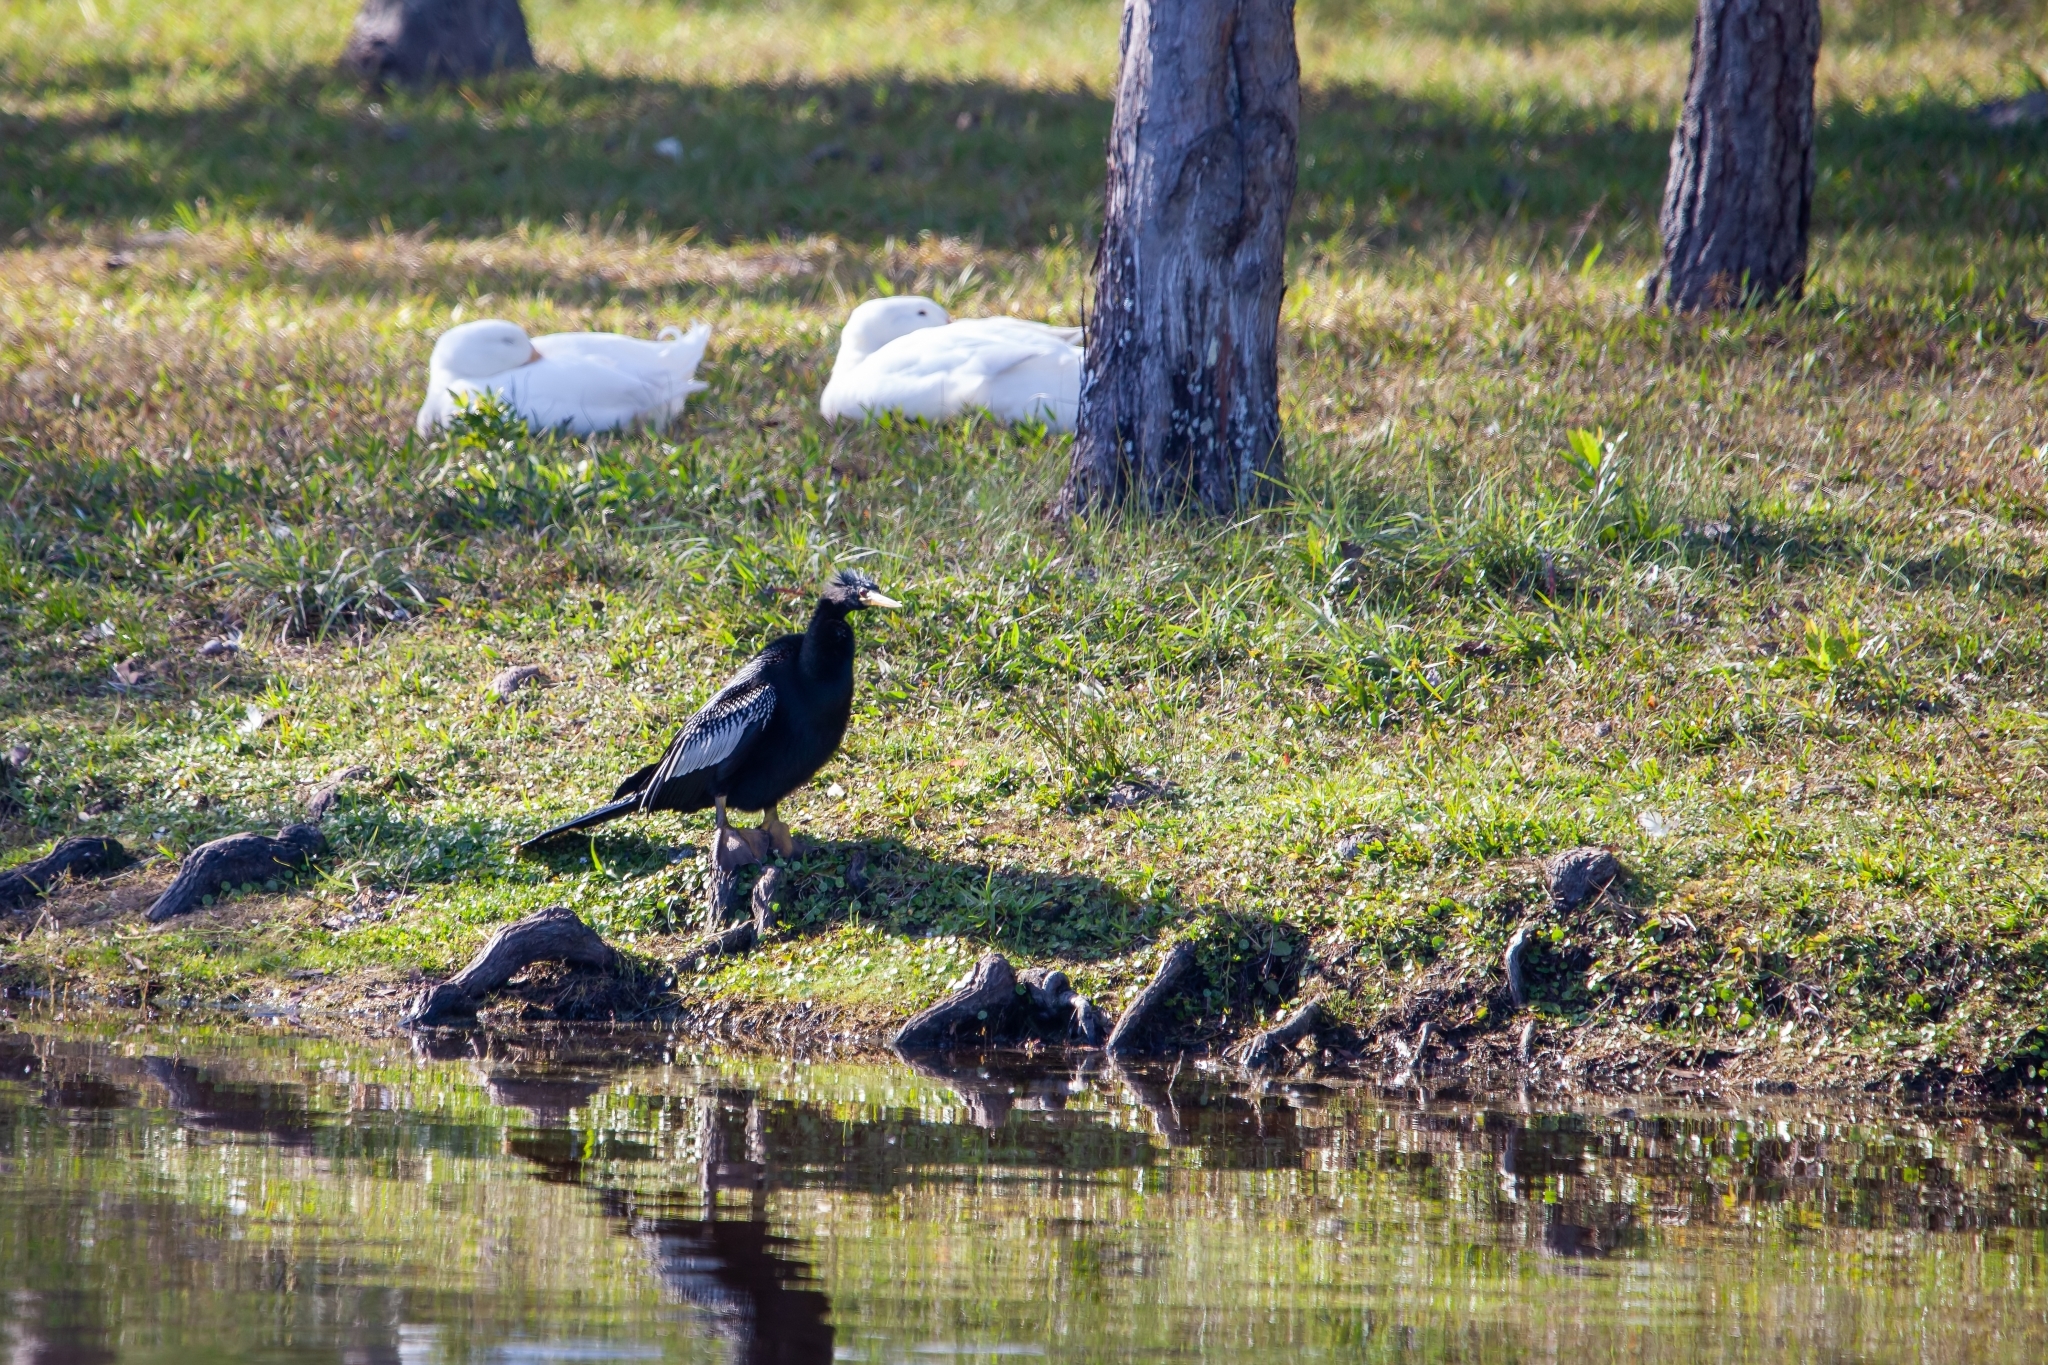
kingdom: Animalia
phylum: Chordata
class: Aves
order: Suliformes
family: Anhingidae
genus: Anhinga
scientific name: Anhinga anhinga
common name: Anhinga
